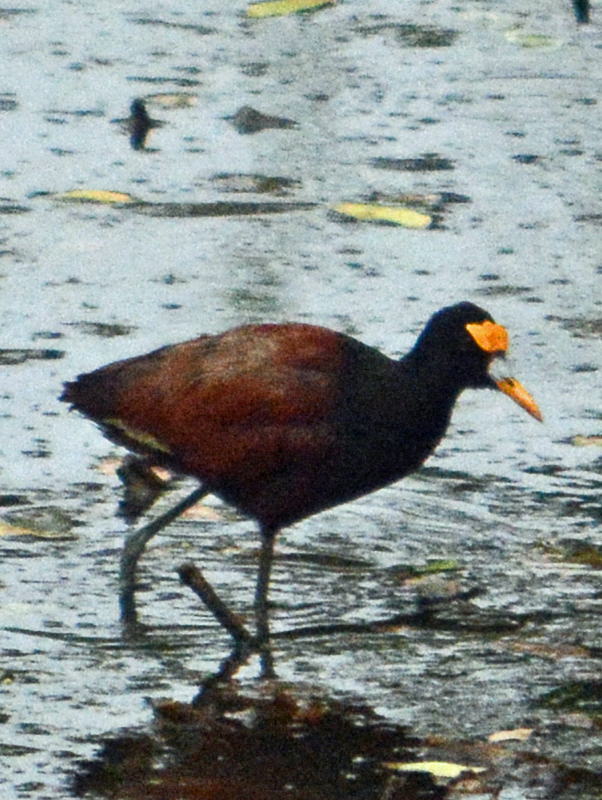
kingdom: Animalia
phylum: Chordata
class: Aves
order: Charadriiformes
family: Jacanidae
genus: Jacana
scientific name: Jacana spinosa
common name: Northern jacana
